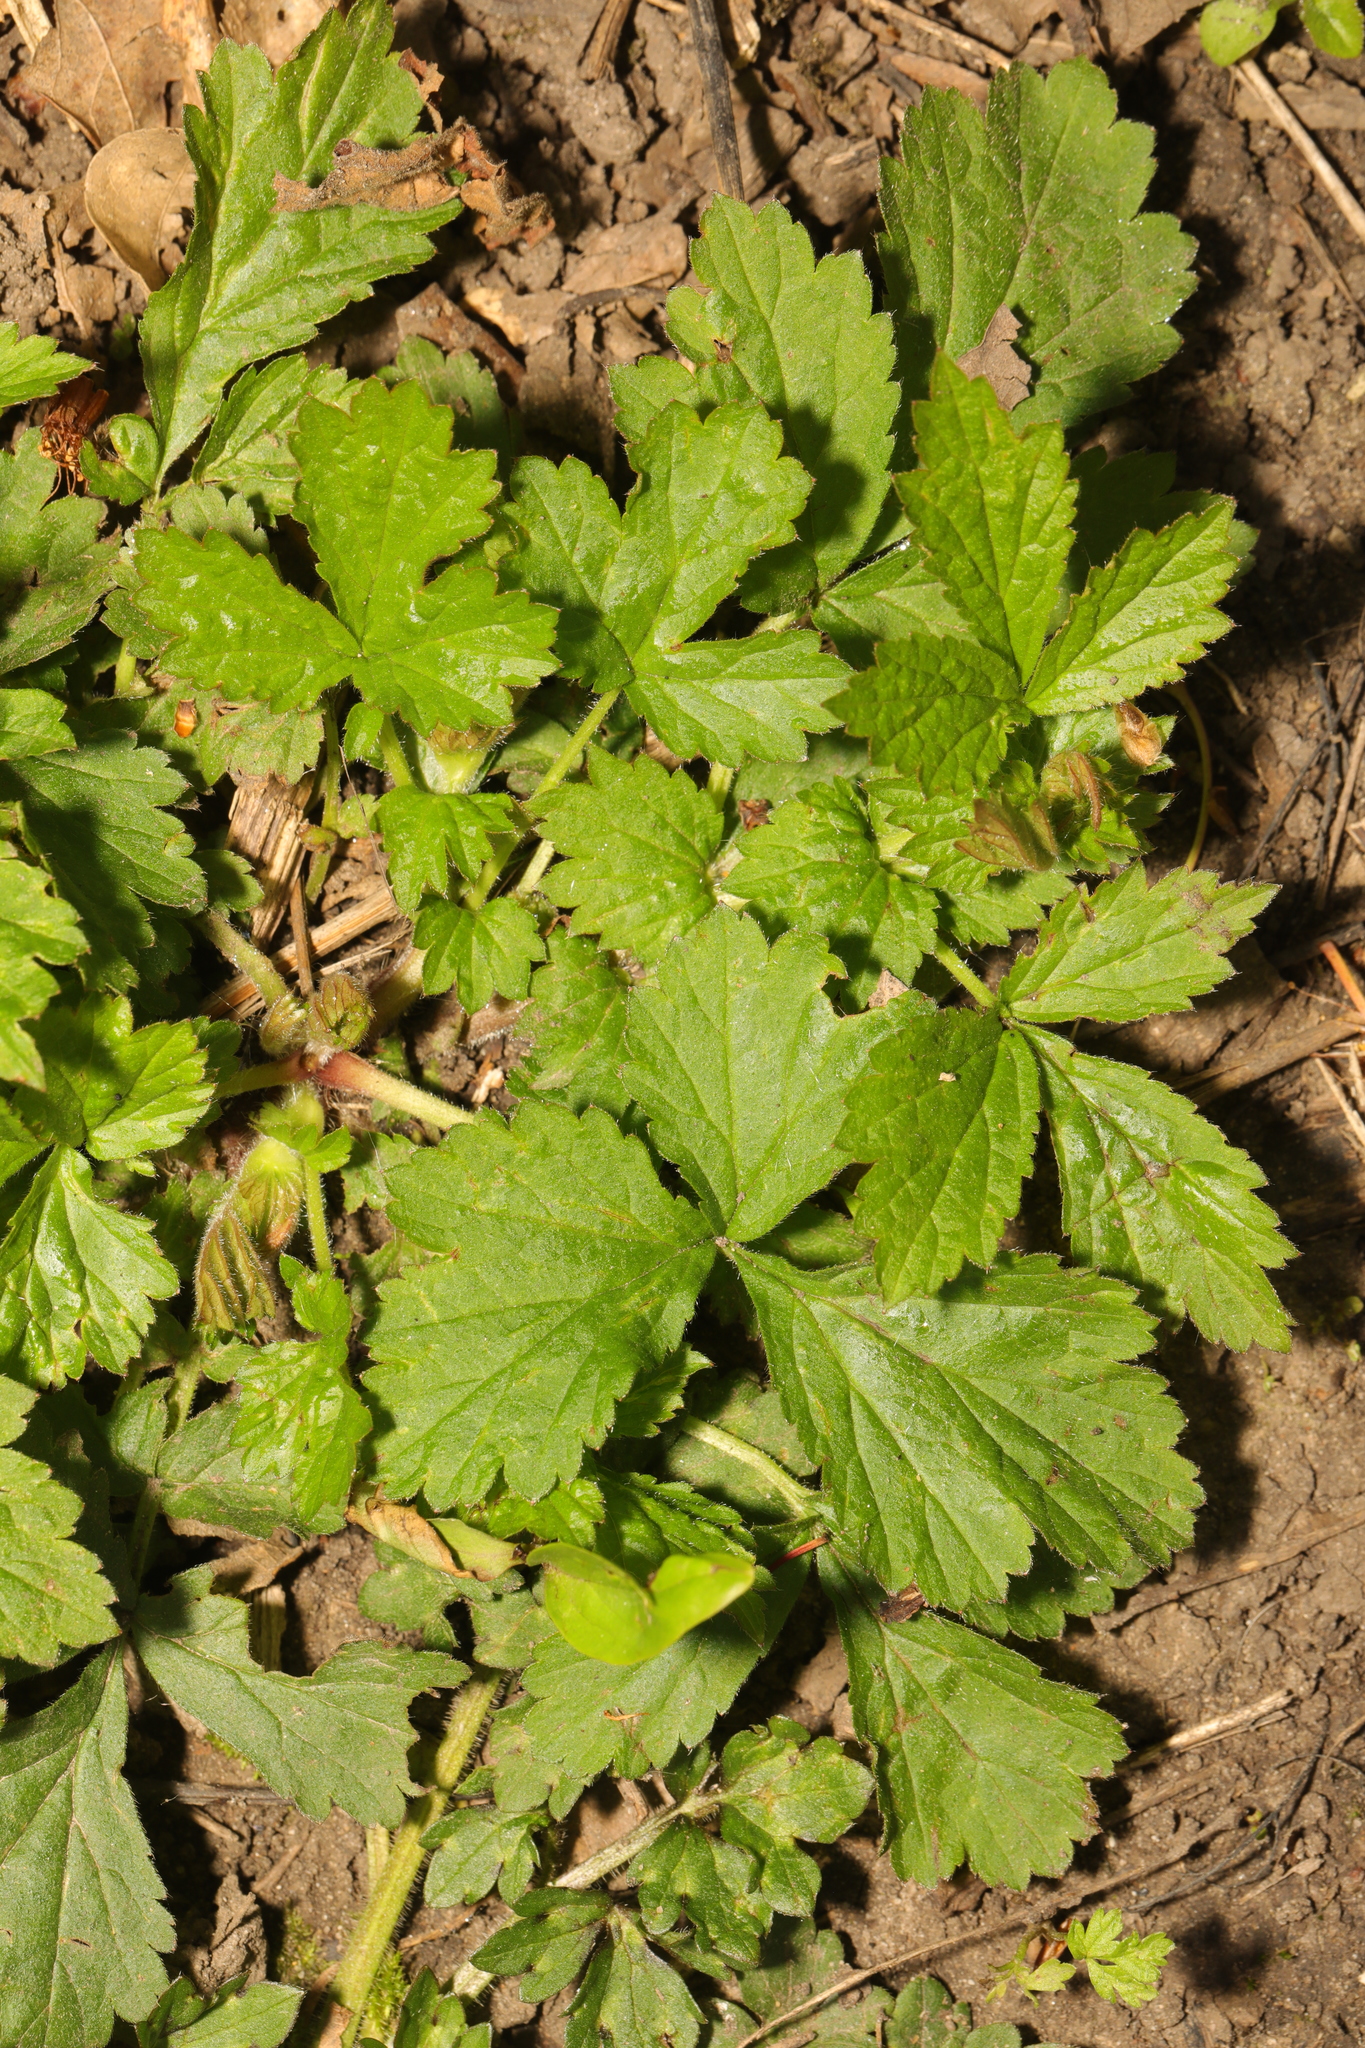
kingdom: Plantae
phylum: Tracheophyta
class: Magnoliopsida
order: Rosales
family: Rosaceae
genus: Geum
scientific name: Geum urbanum
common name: Wood avens
